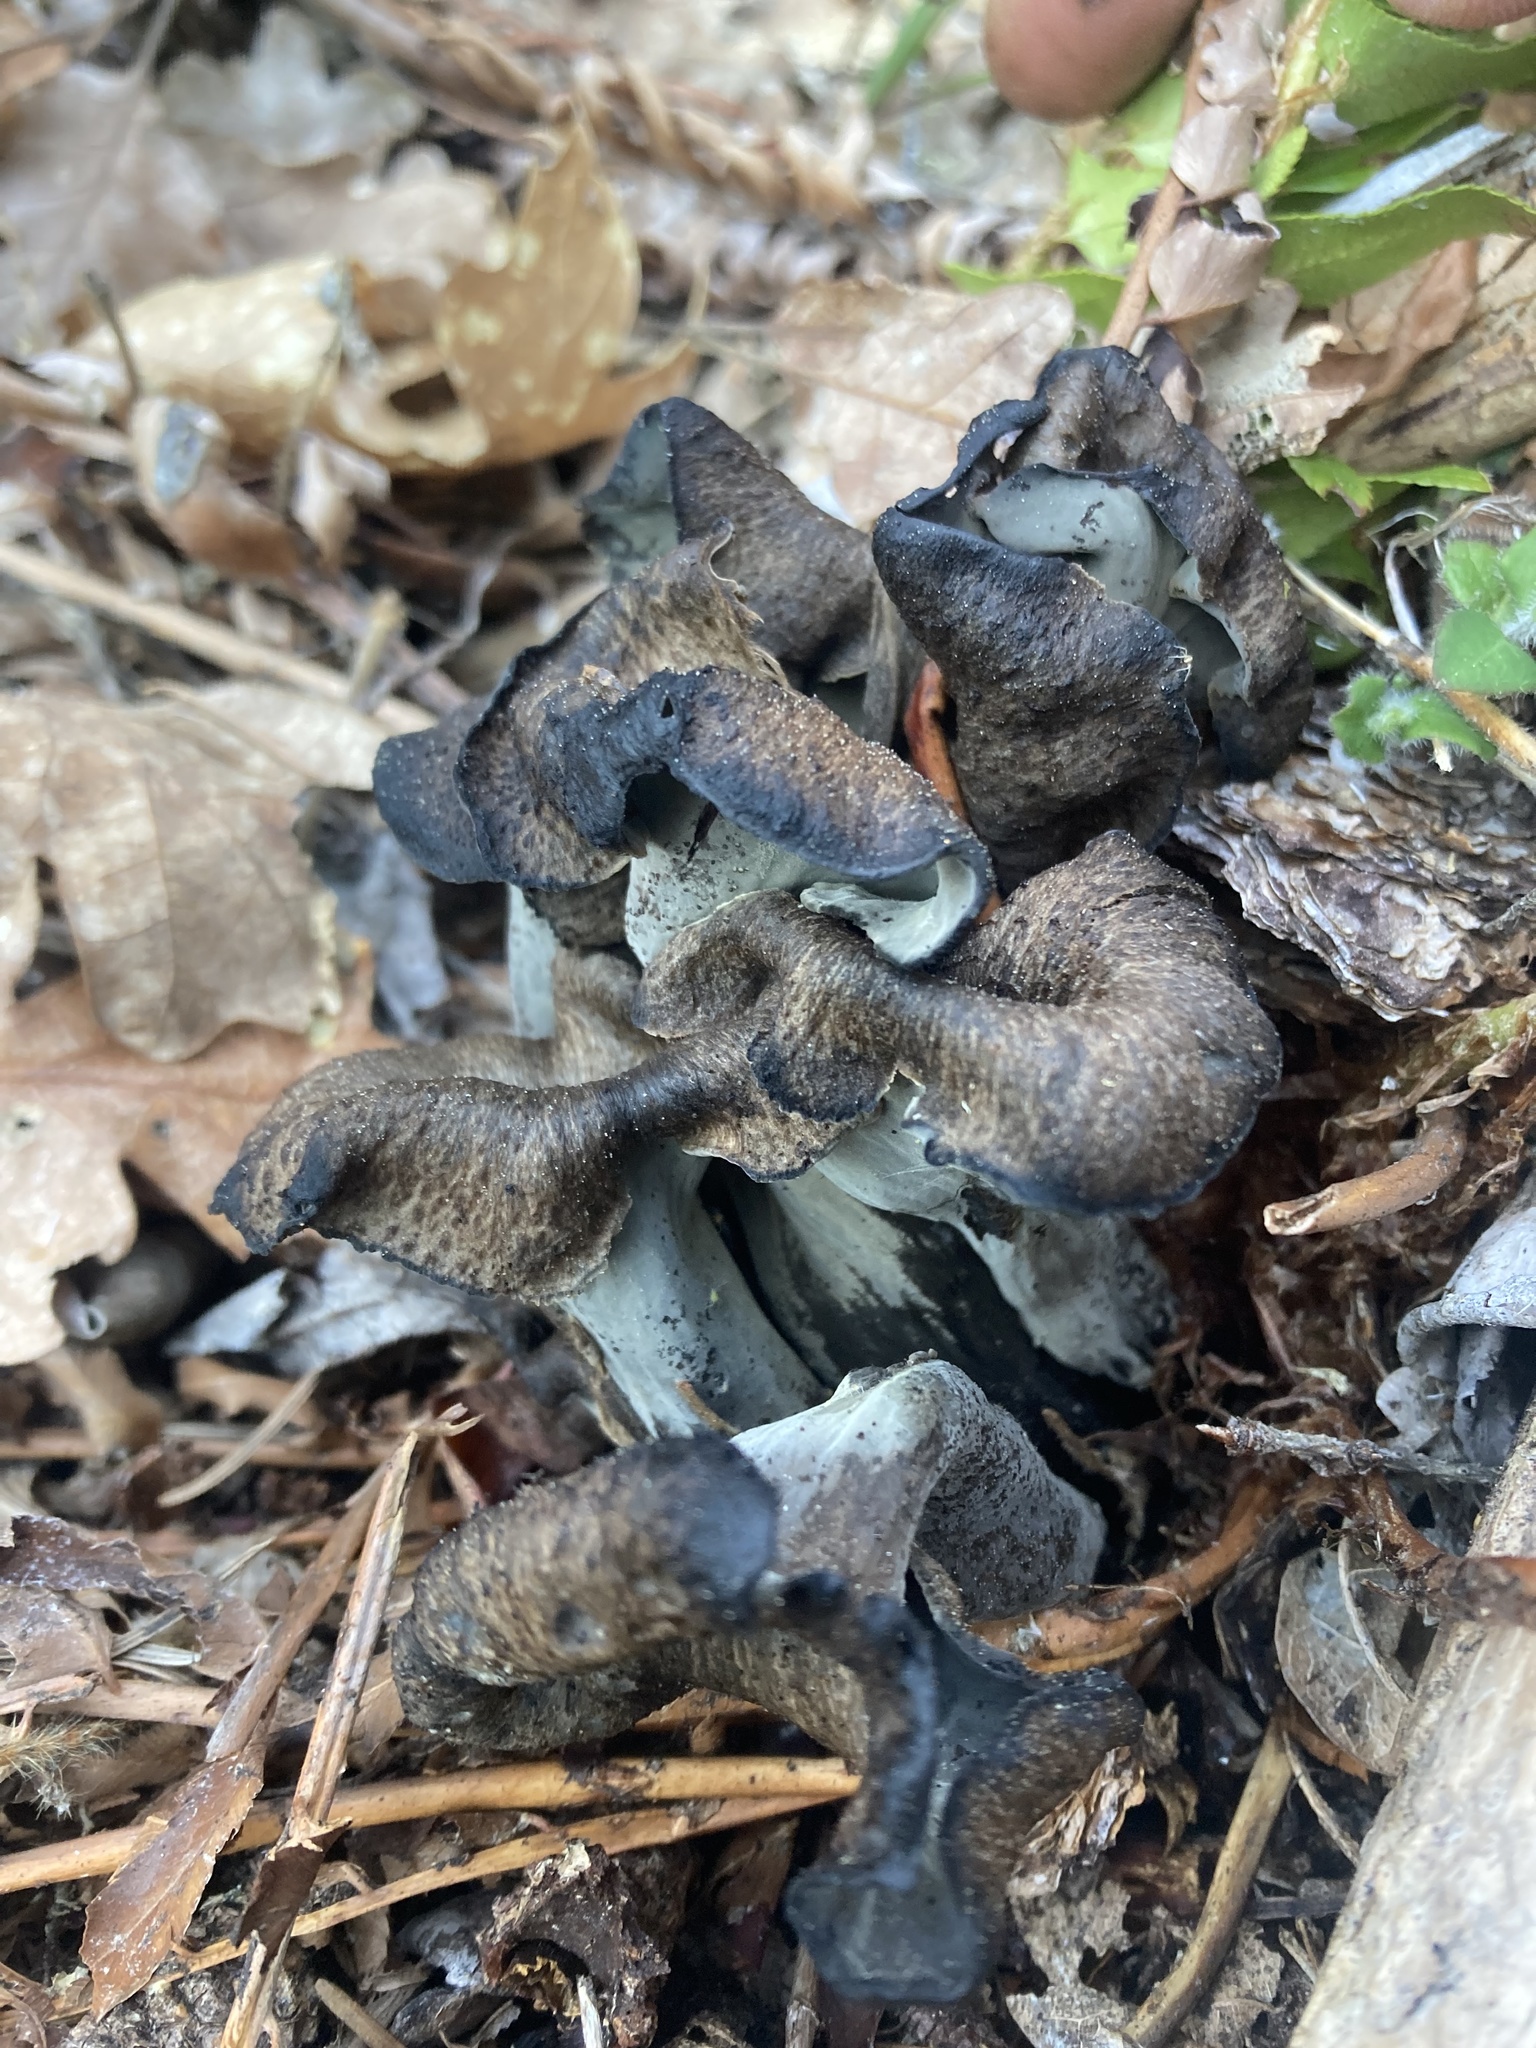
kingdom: Fungi
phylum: Basidiomycota
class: Agaricomycetes
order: Cantharellales
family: Hydnaceae
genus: Craterellus
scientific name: Craterellus calicornucopioides
